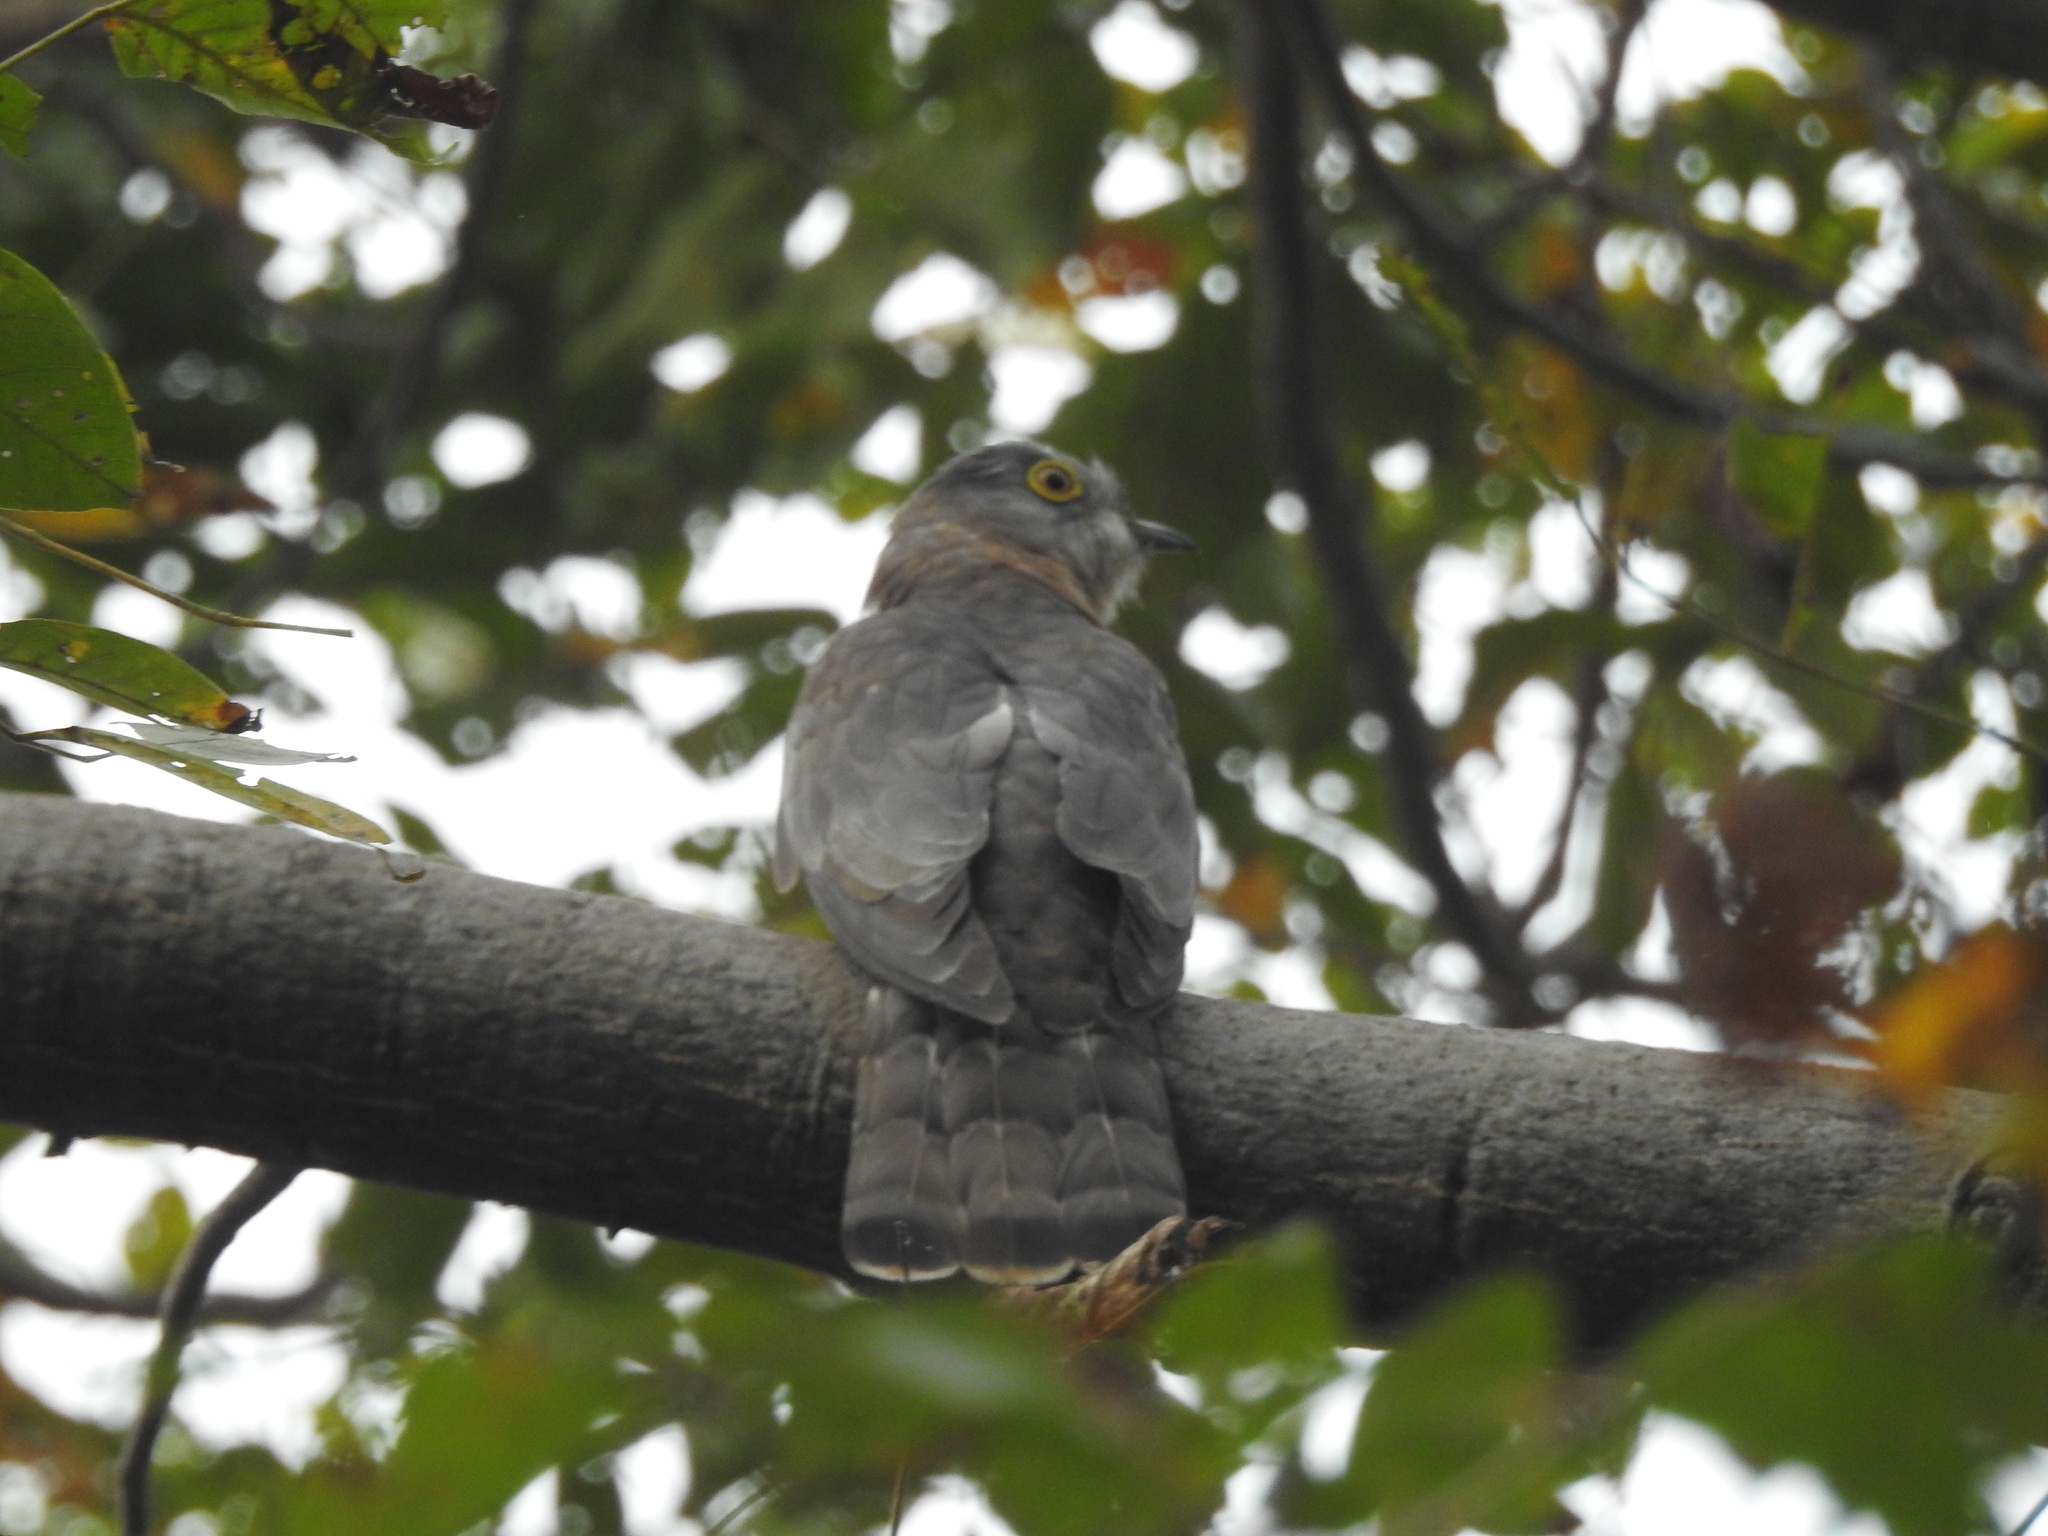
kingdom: Animalia
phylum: Chordata
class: Aves
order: Cuculiformes
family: Cuculidae
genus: Cuculus
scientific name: Cuculus varius
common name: Common hawk cuckoo
